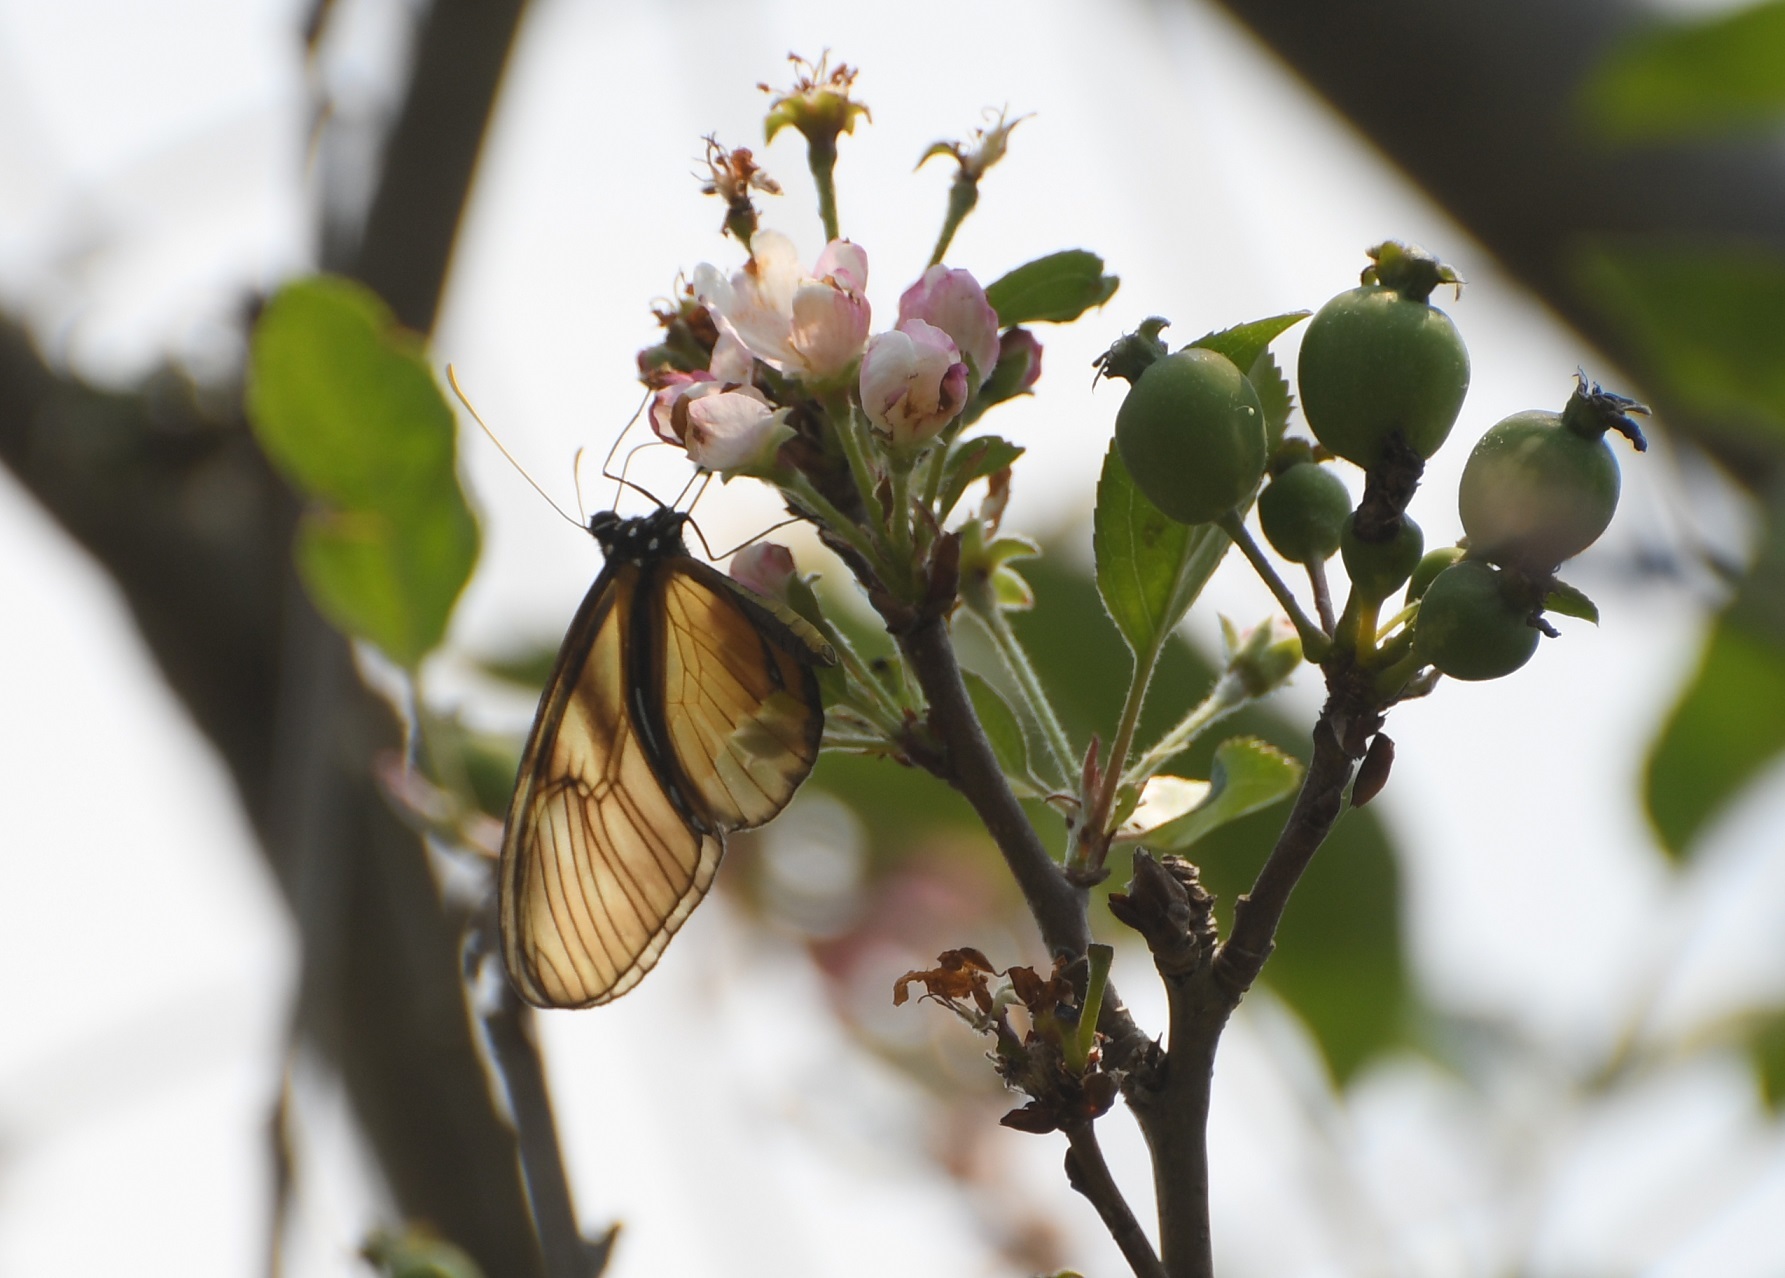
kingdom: Animalia
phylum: Arthropoda
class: Insecta
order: Lepidoptera
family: Nymphalidae
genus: Dircenna
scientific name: Dircenna
